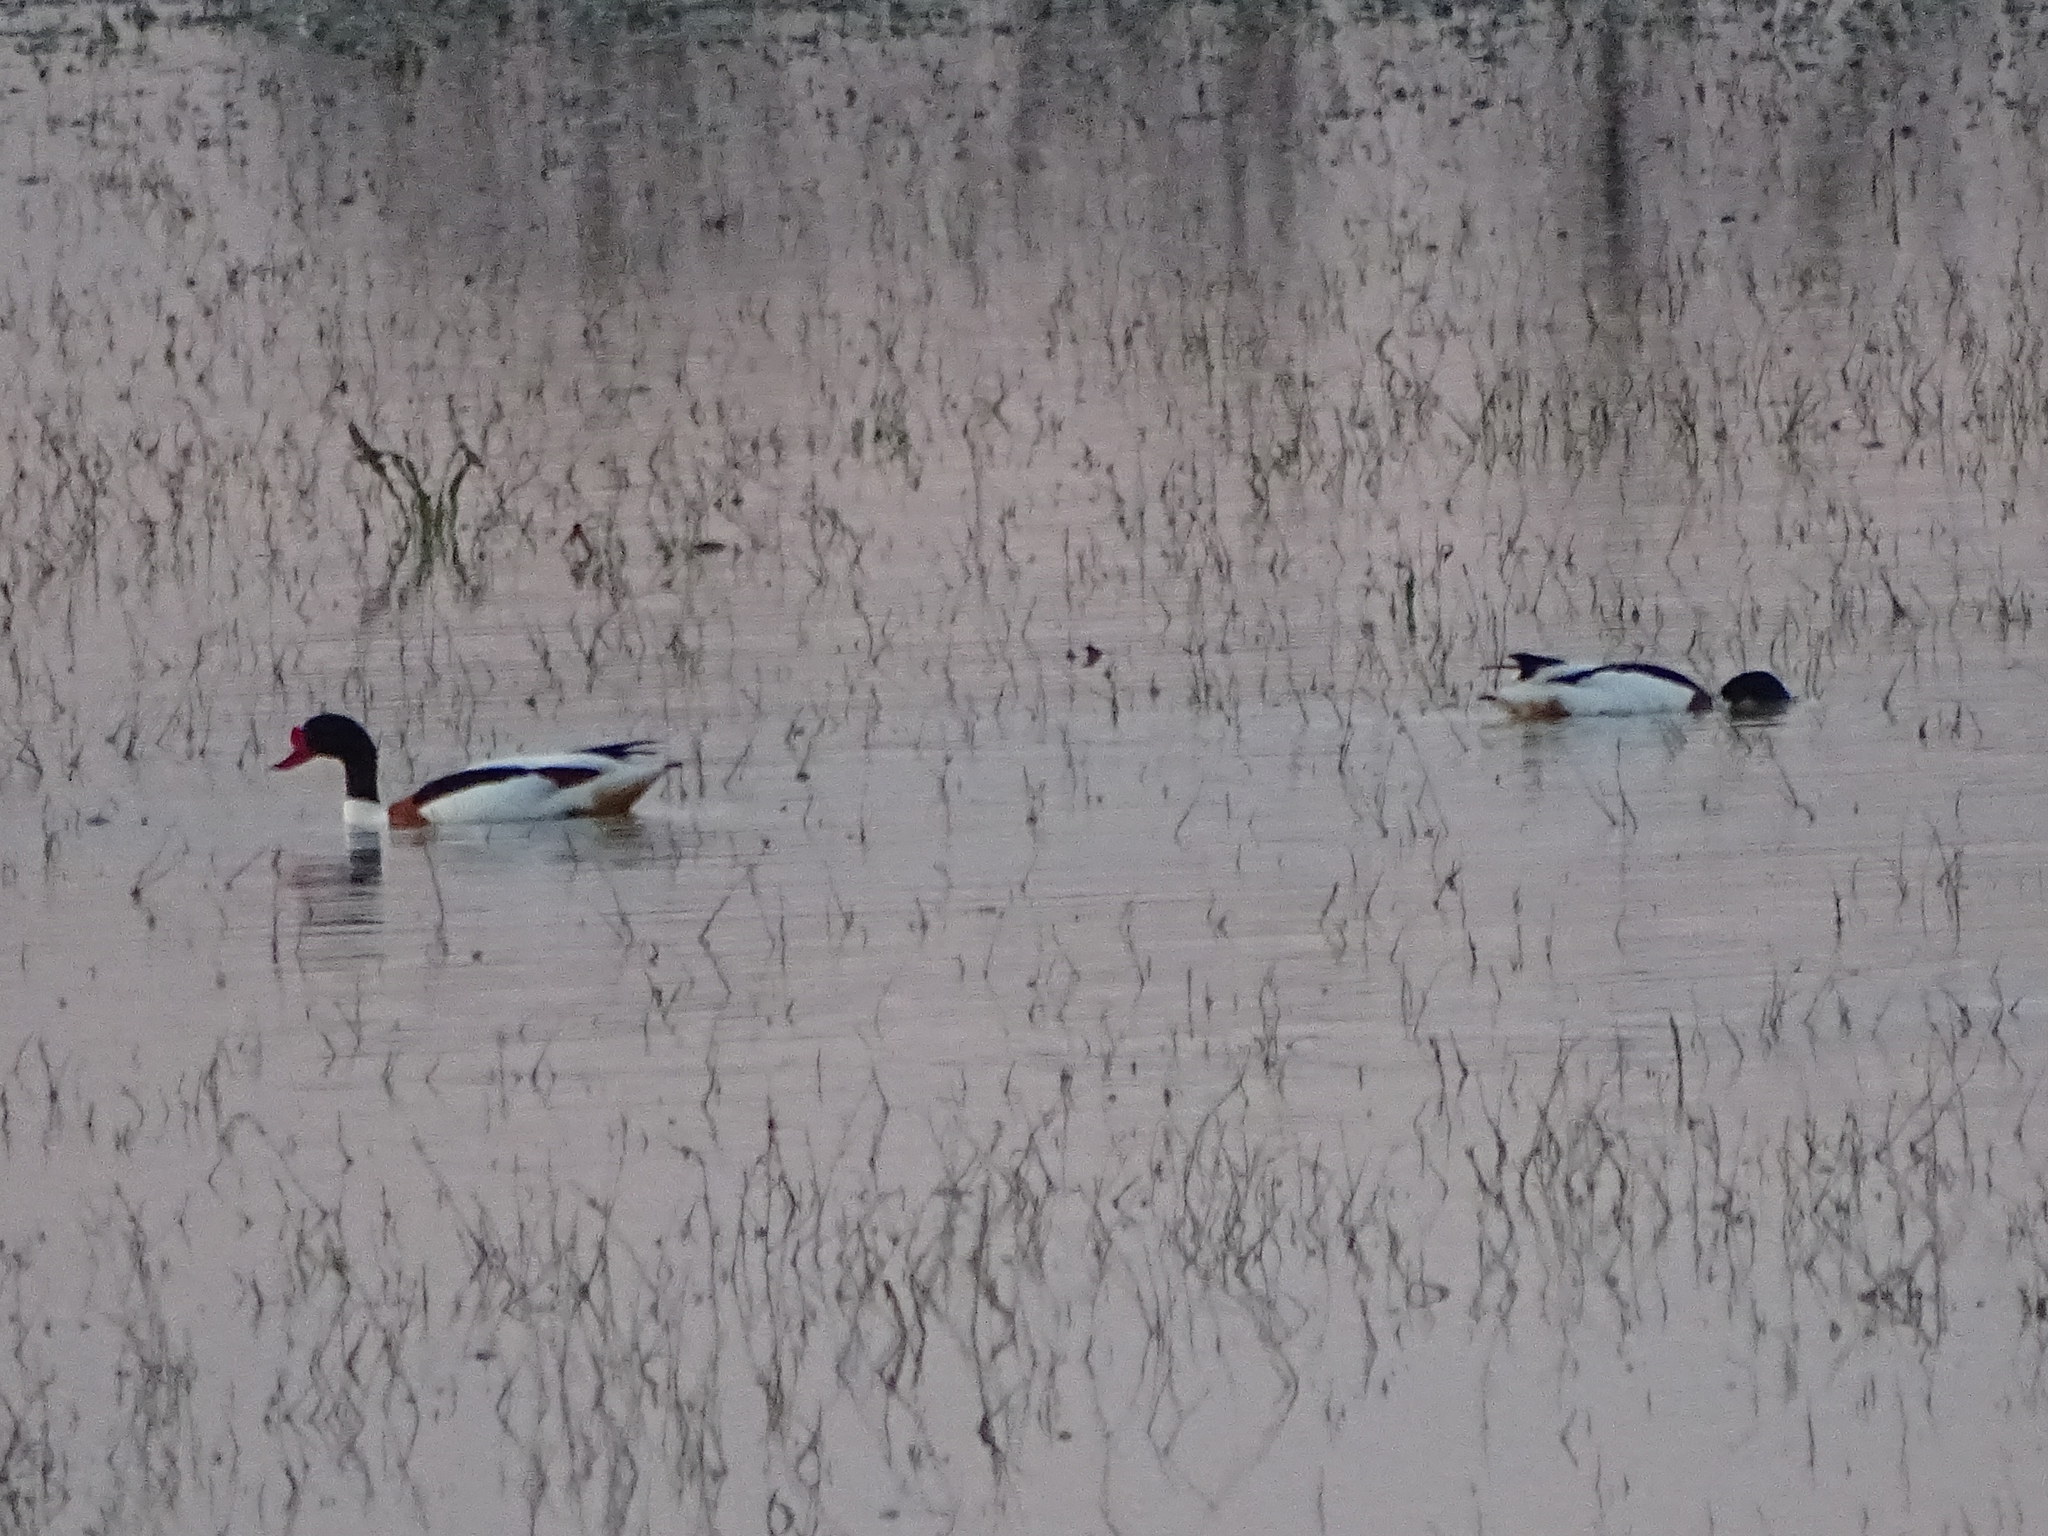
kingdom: Animalia
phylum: Chordata
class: Aves
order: Anseriformes
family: Anatidae
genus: Tadorna
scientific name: Tadorna tadorna
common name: Common shelduck
